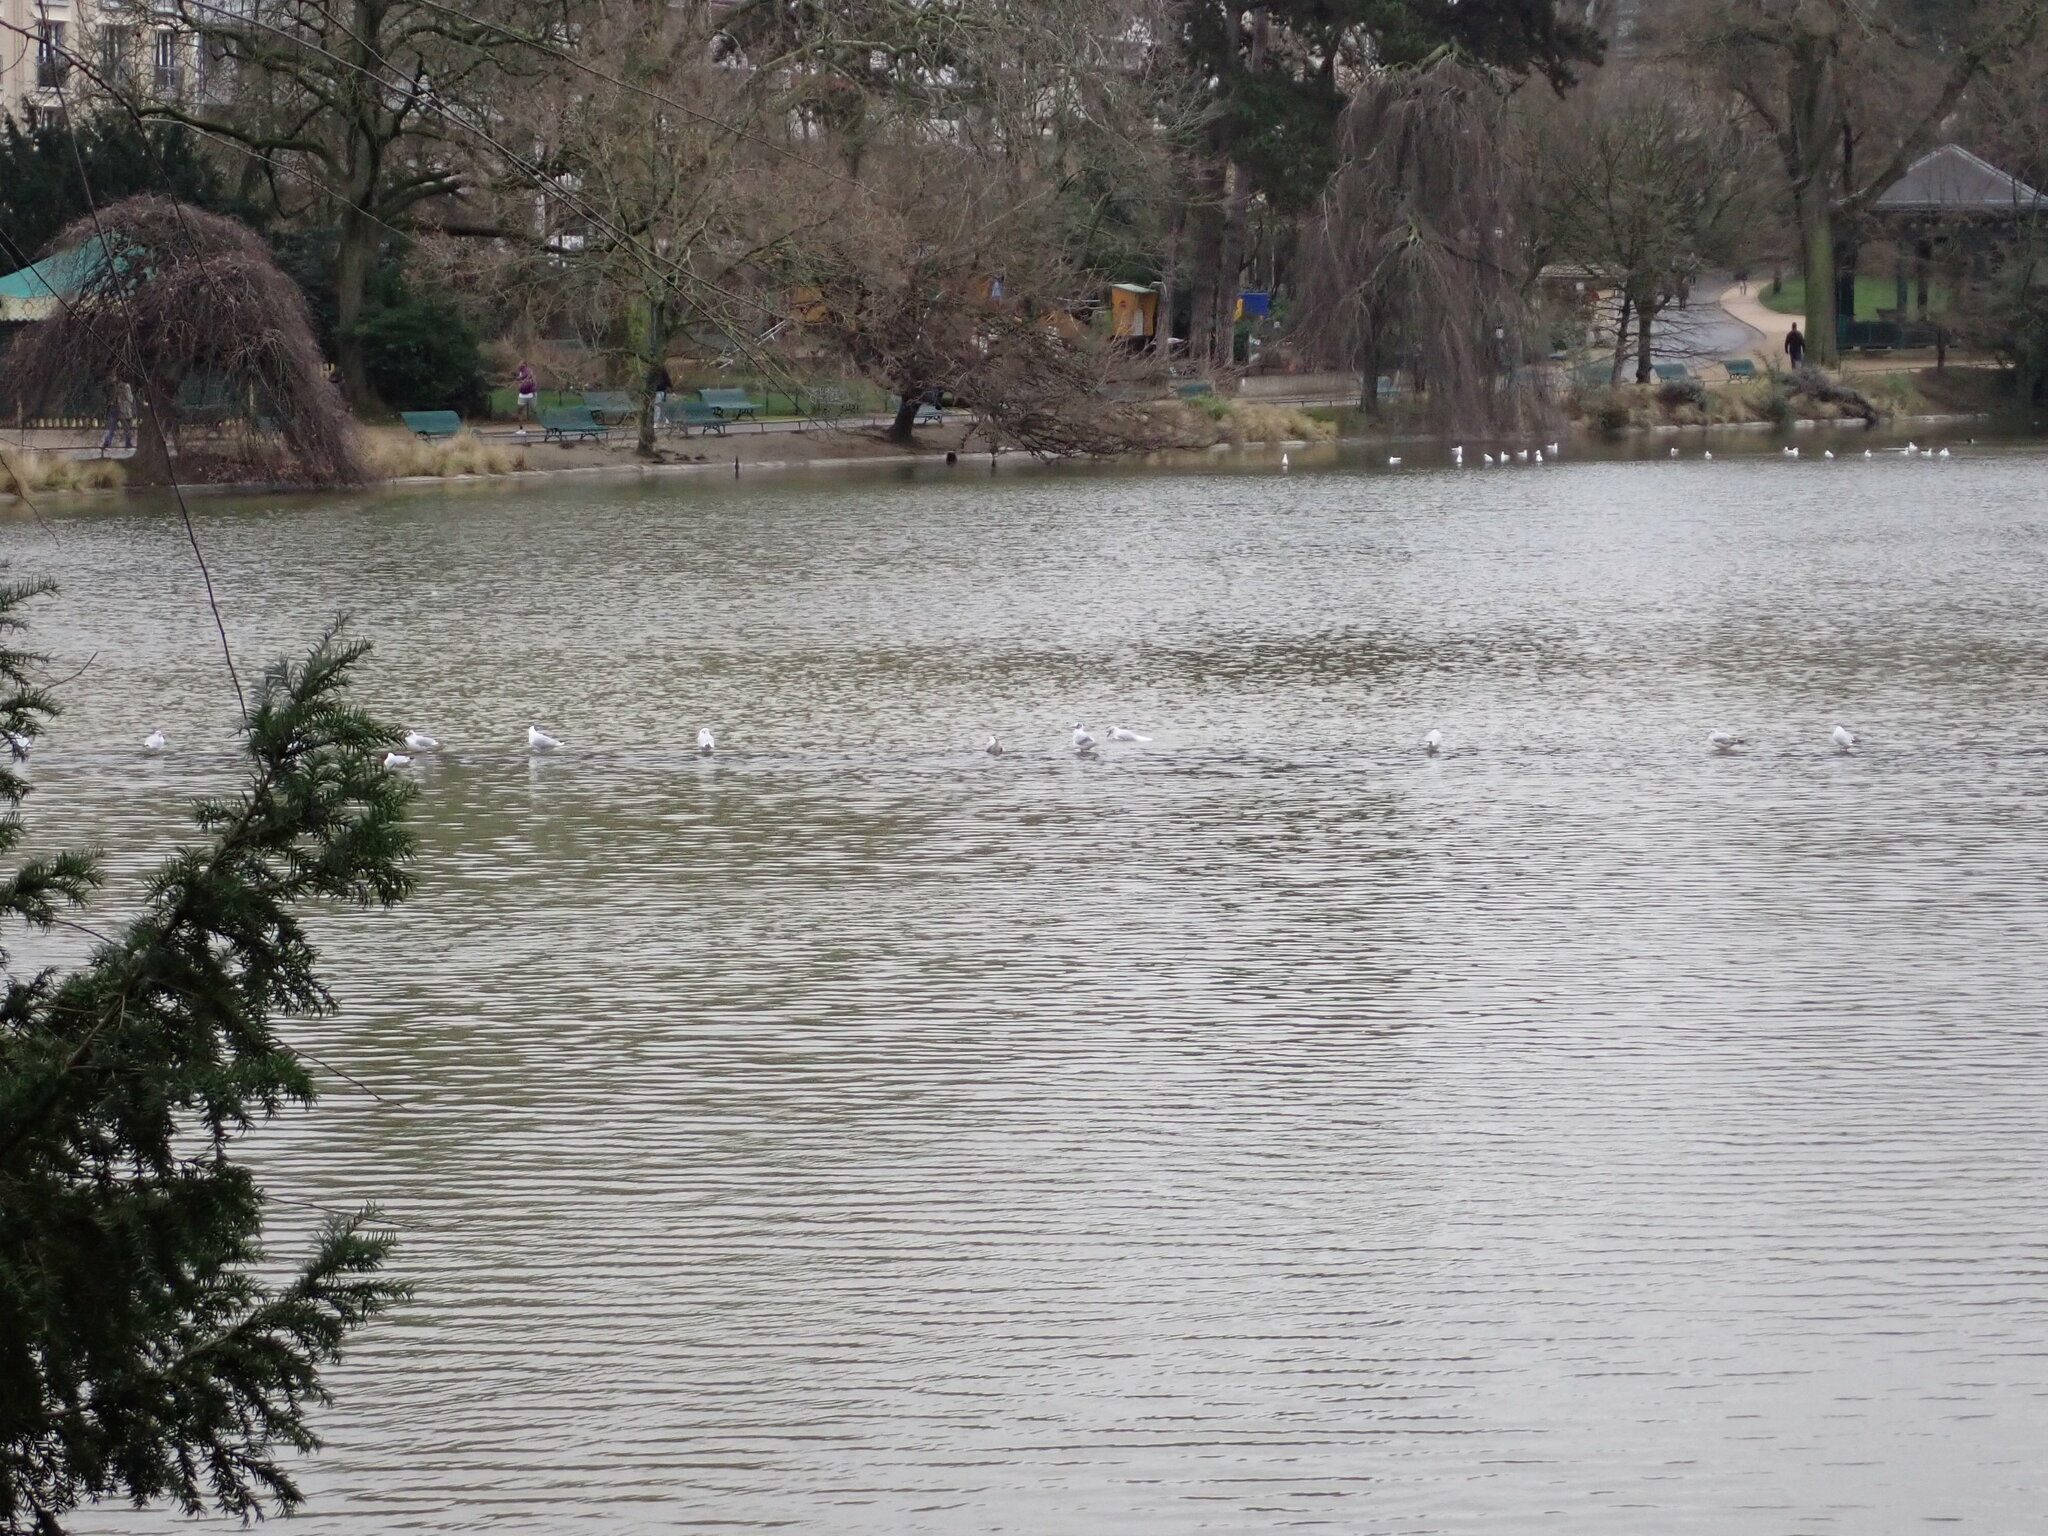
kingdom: Animalia
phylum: Chordata
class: Aves
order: Charadriiformes
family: Laridae
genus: Chroicocephalus
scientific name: Chroicocephalus ridibundus
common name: Black-headed gull
